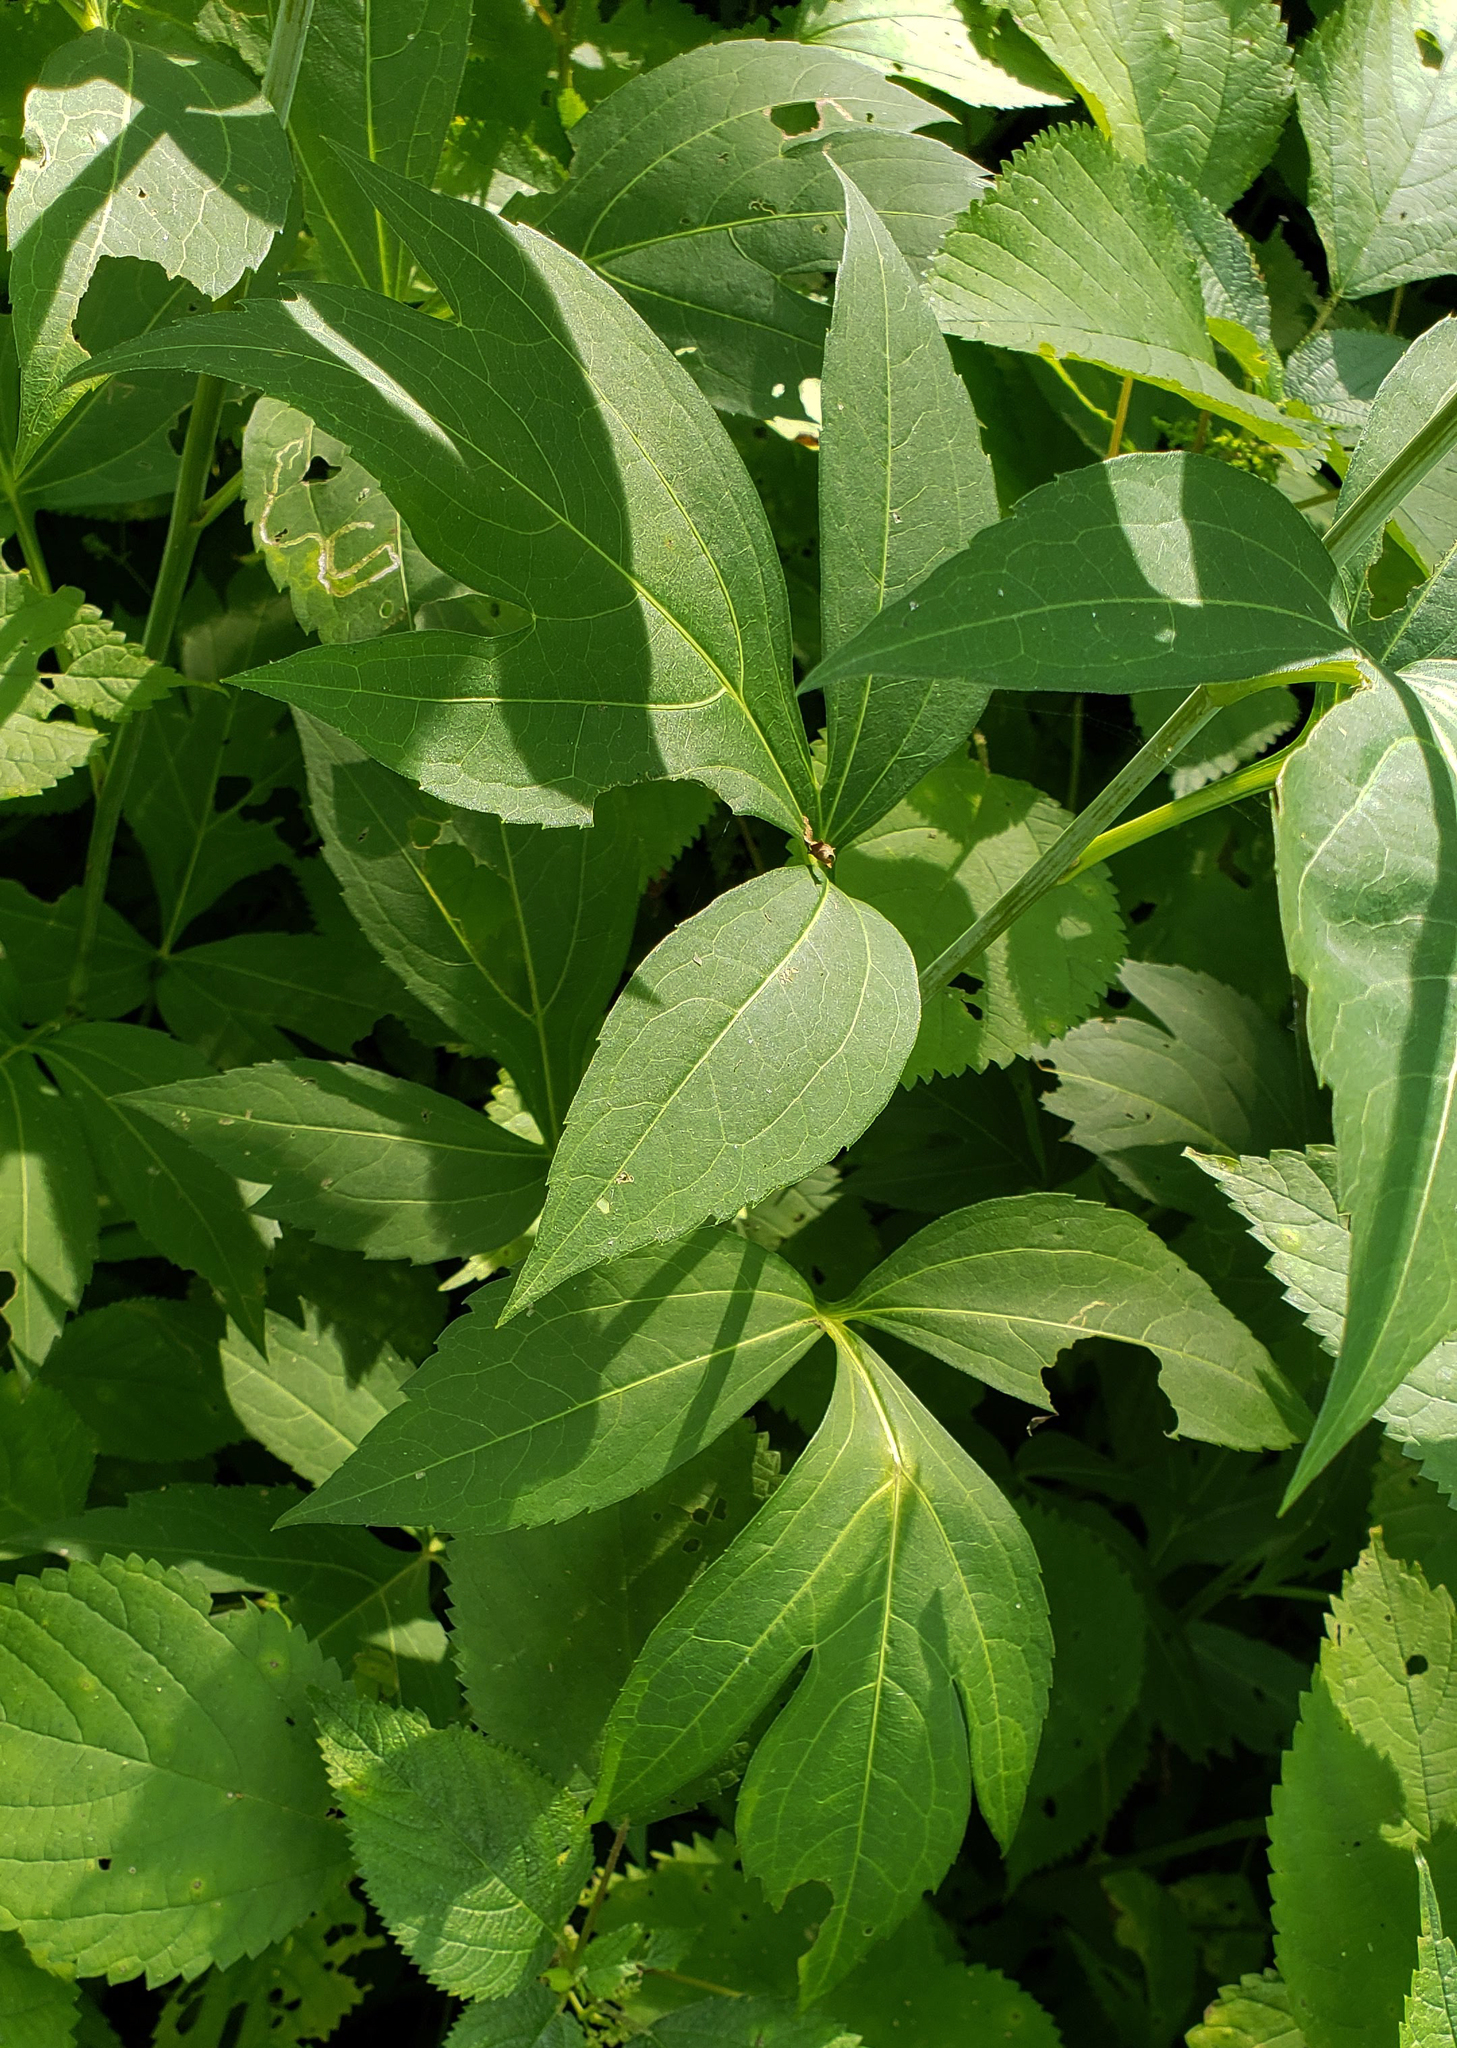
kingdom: Plantae
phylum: Tracheophyta
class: Magnoliopsida
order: Asterales
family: Asteraceae
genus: Rudbeckia
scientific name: Rudbeckia laciniata
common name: Coneflower
